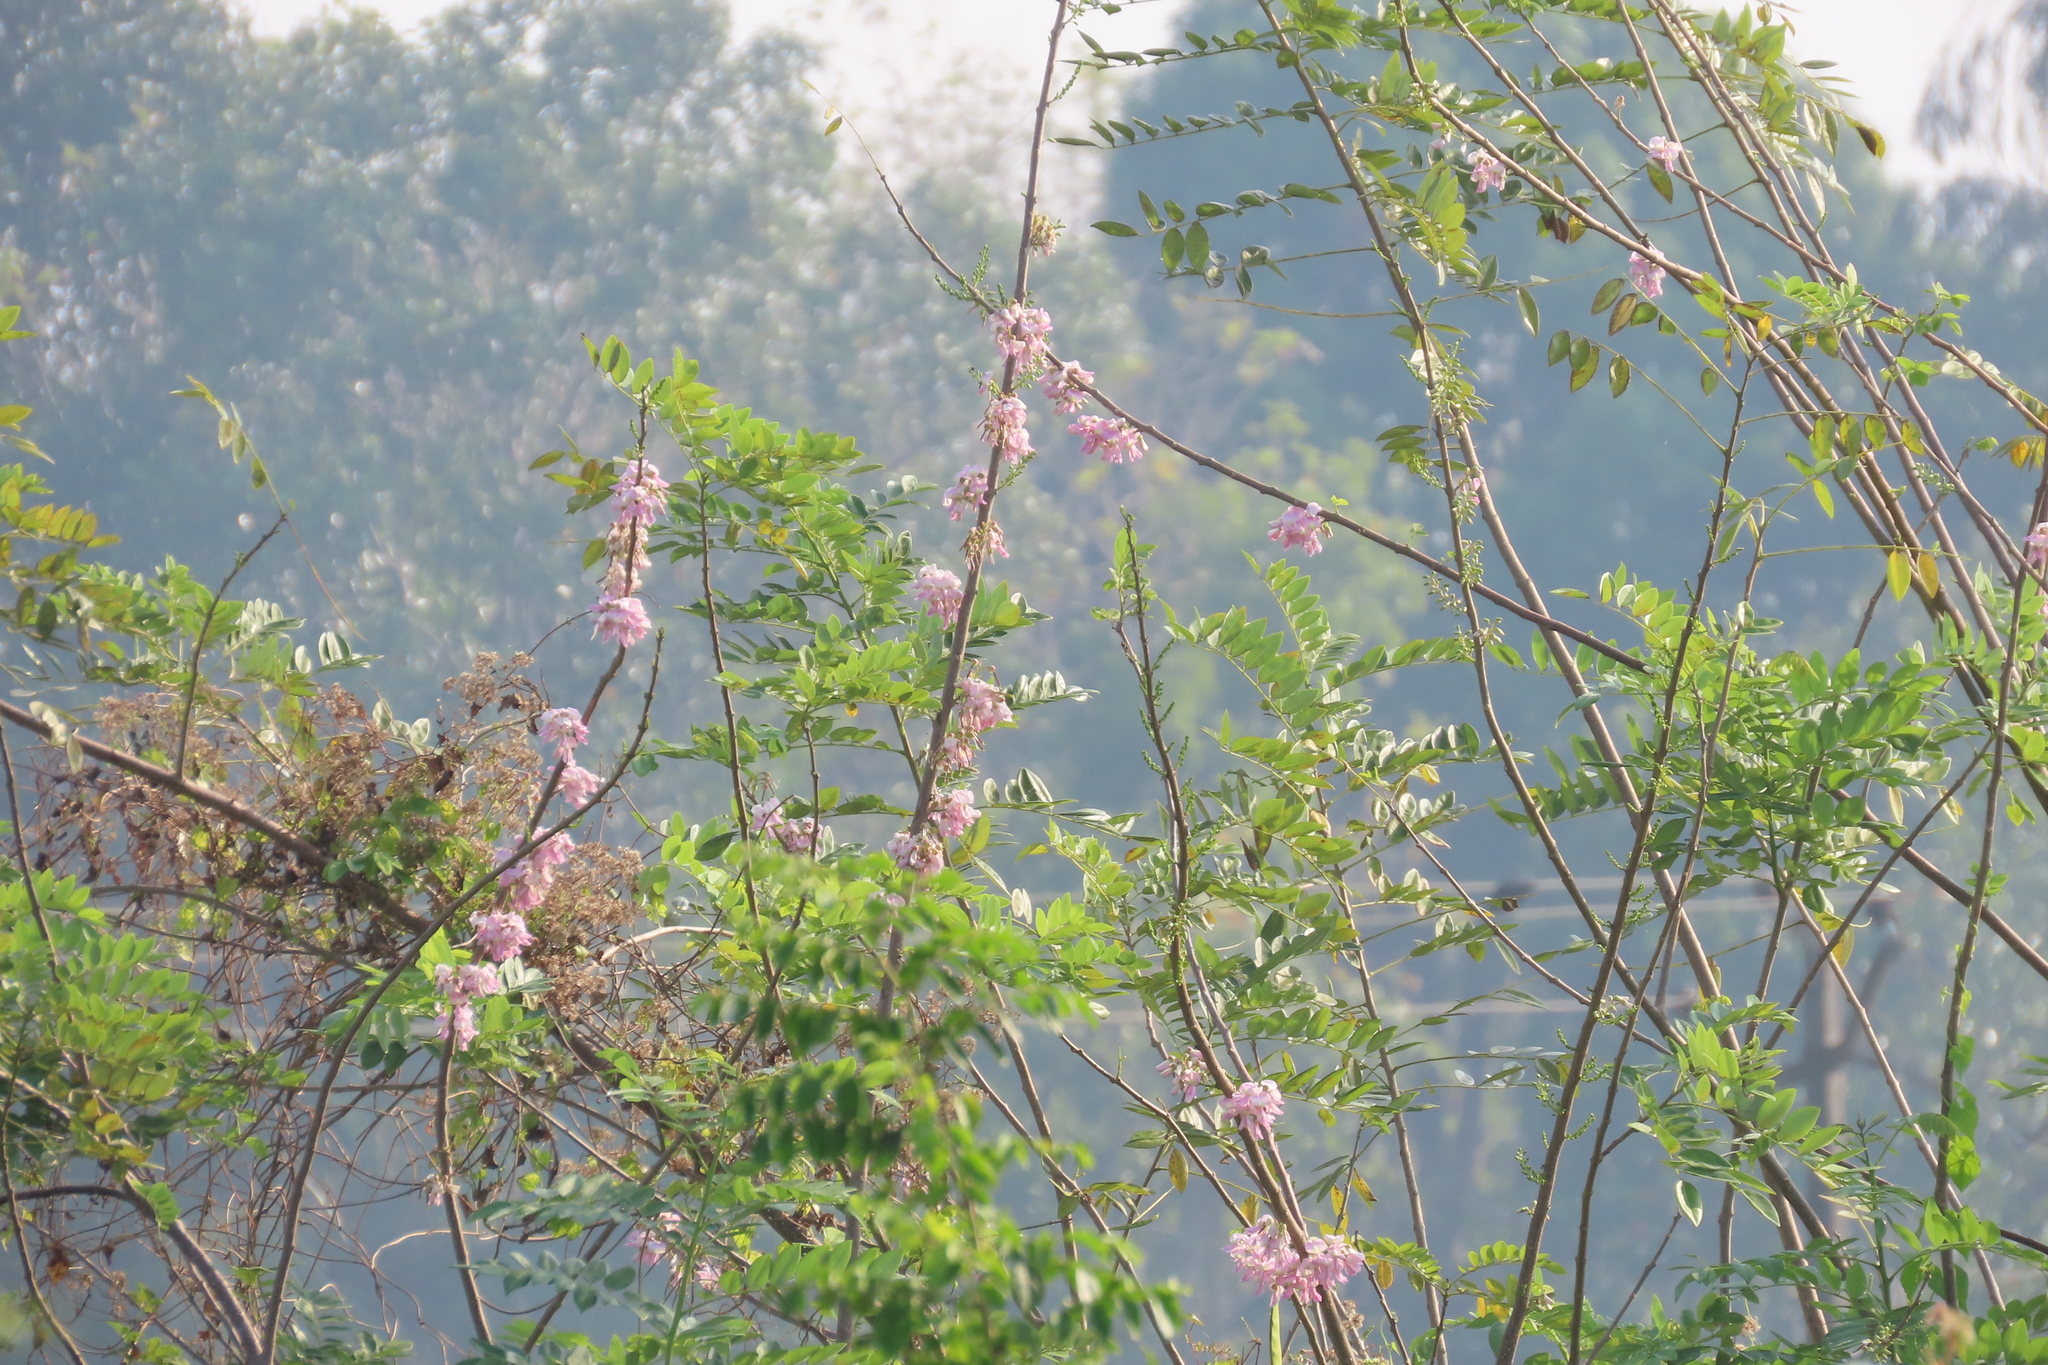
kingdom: Plantae
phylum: Tracheophyta
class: Magnoliopsida
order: Fabales
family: Fabaceae
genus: Gliricidia
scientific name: Gliricidia sepium
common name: Quickstick
